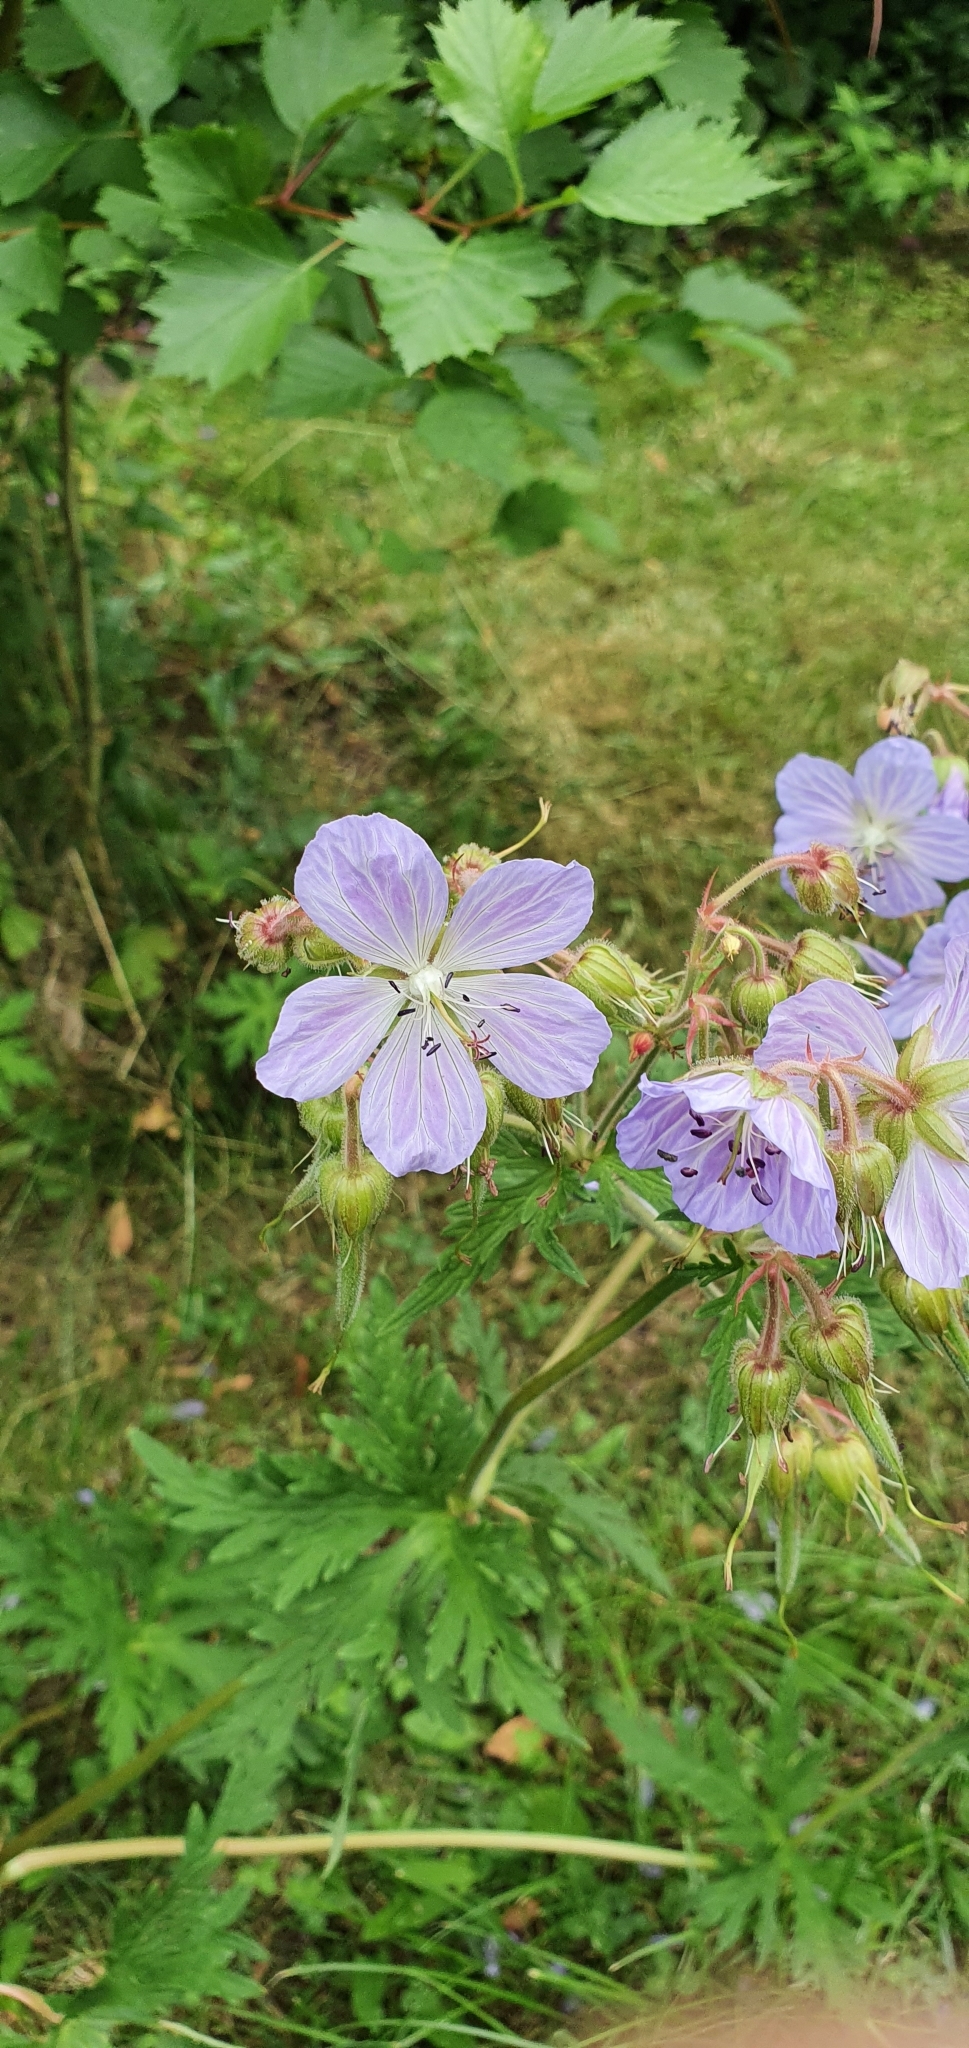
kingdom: Plantae
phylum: Tracheophyta
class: Magnoliopsida
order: Geraniales
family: Geraniaceae
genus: Geranium
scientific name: Geranium pratense
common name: Meadow crane's-bill
